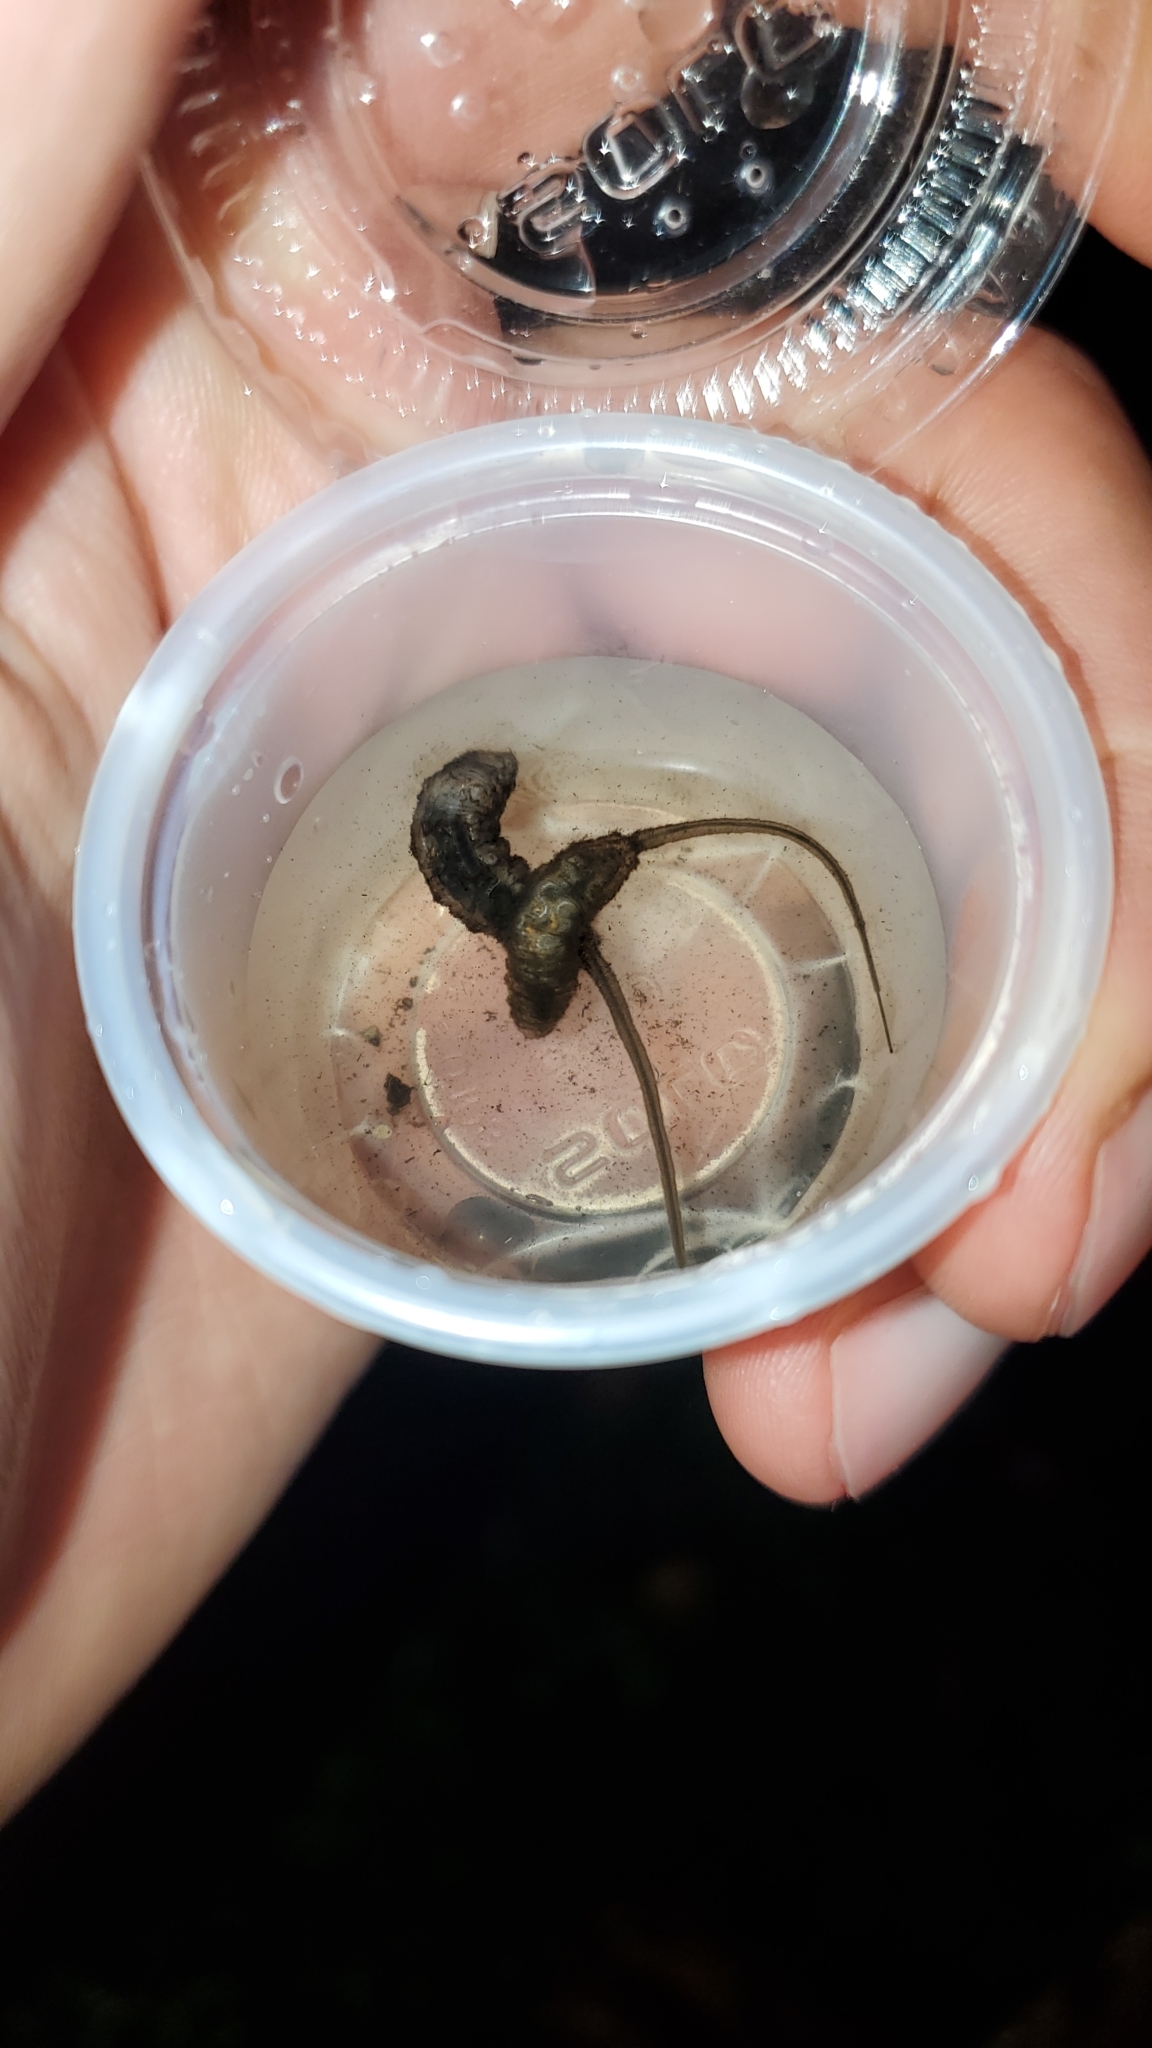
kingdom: Animalia
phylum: Arthropoda
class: Insecta
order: Diptera
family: Syrphidae
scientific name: Syrphidae
